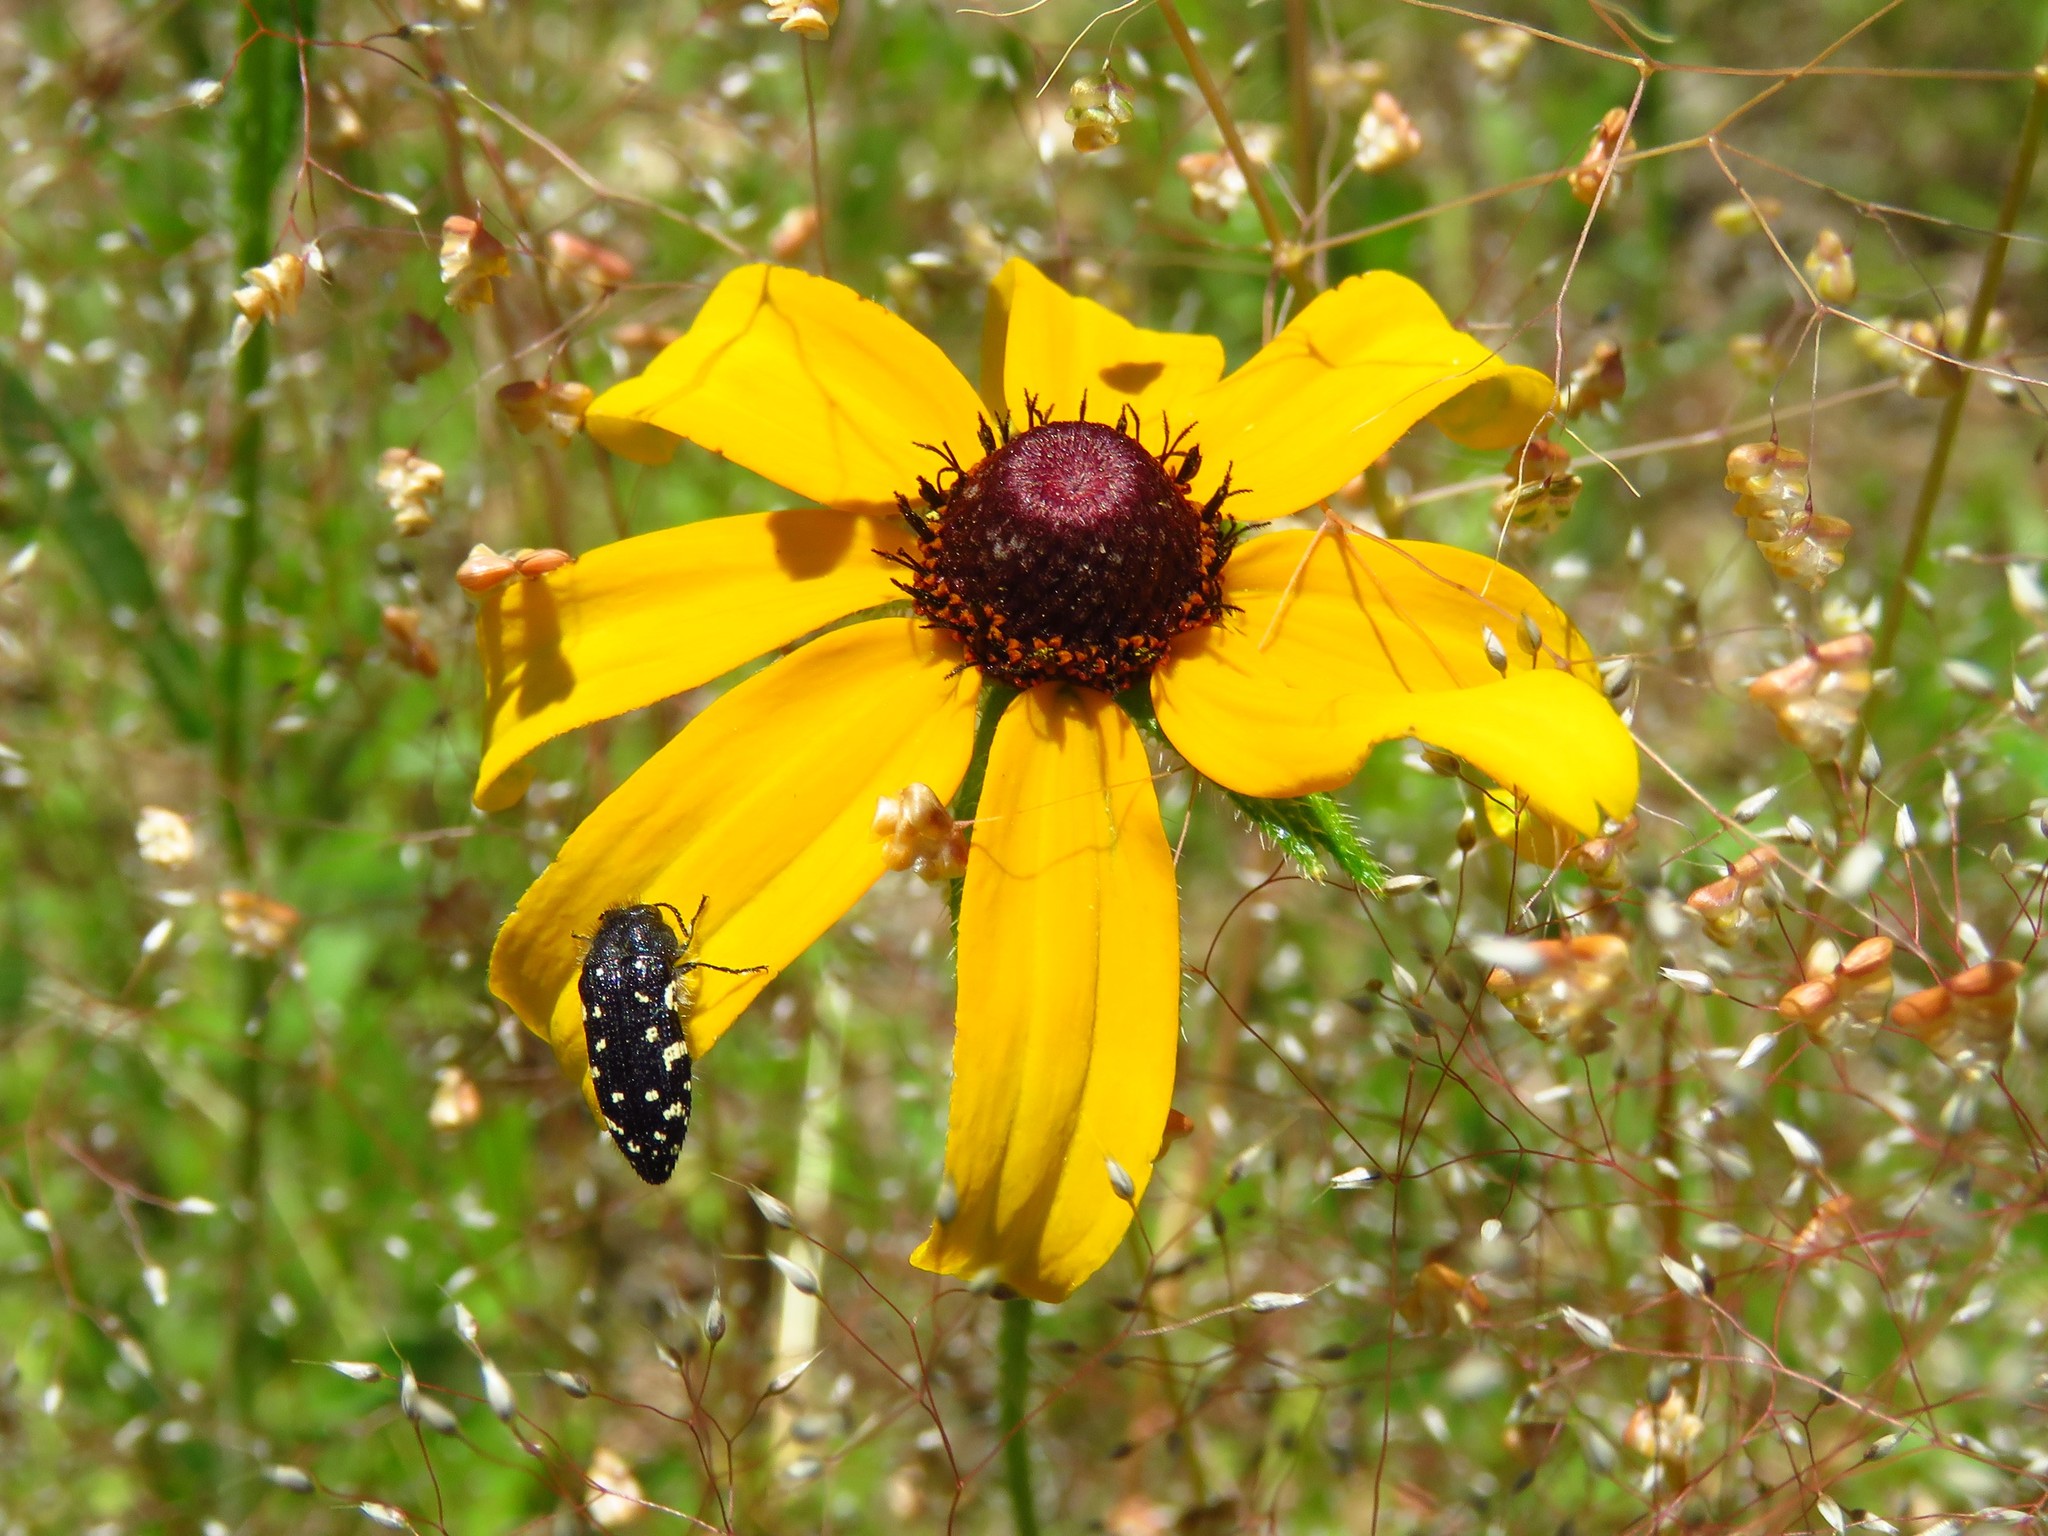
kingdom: Plantae
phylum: Tracheophyta
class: Magnoliopsida
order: Asterales
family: Asteraceae
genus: Rudbeckia
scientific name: Rudbeckia hirta
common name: Black-eyed-susan
